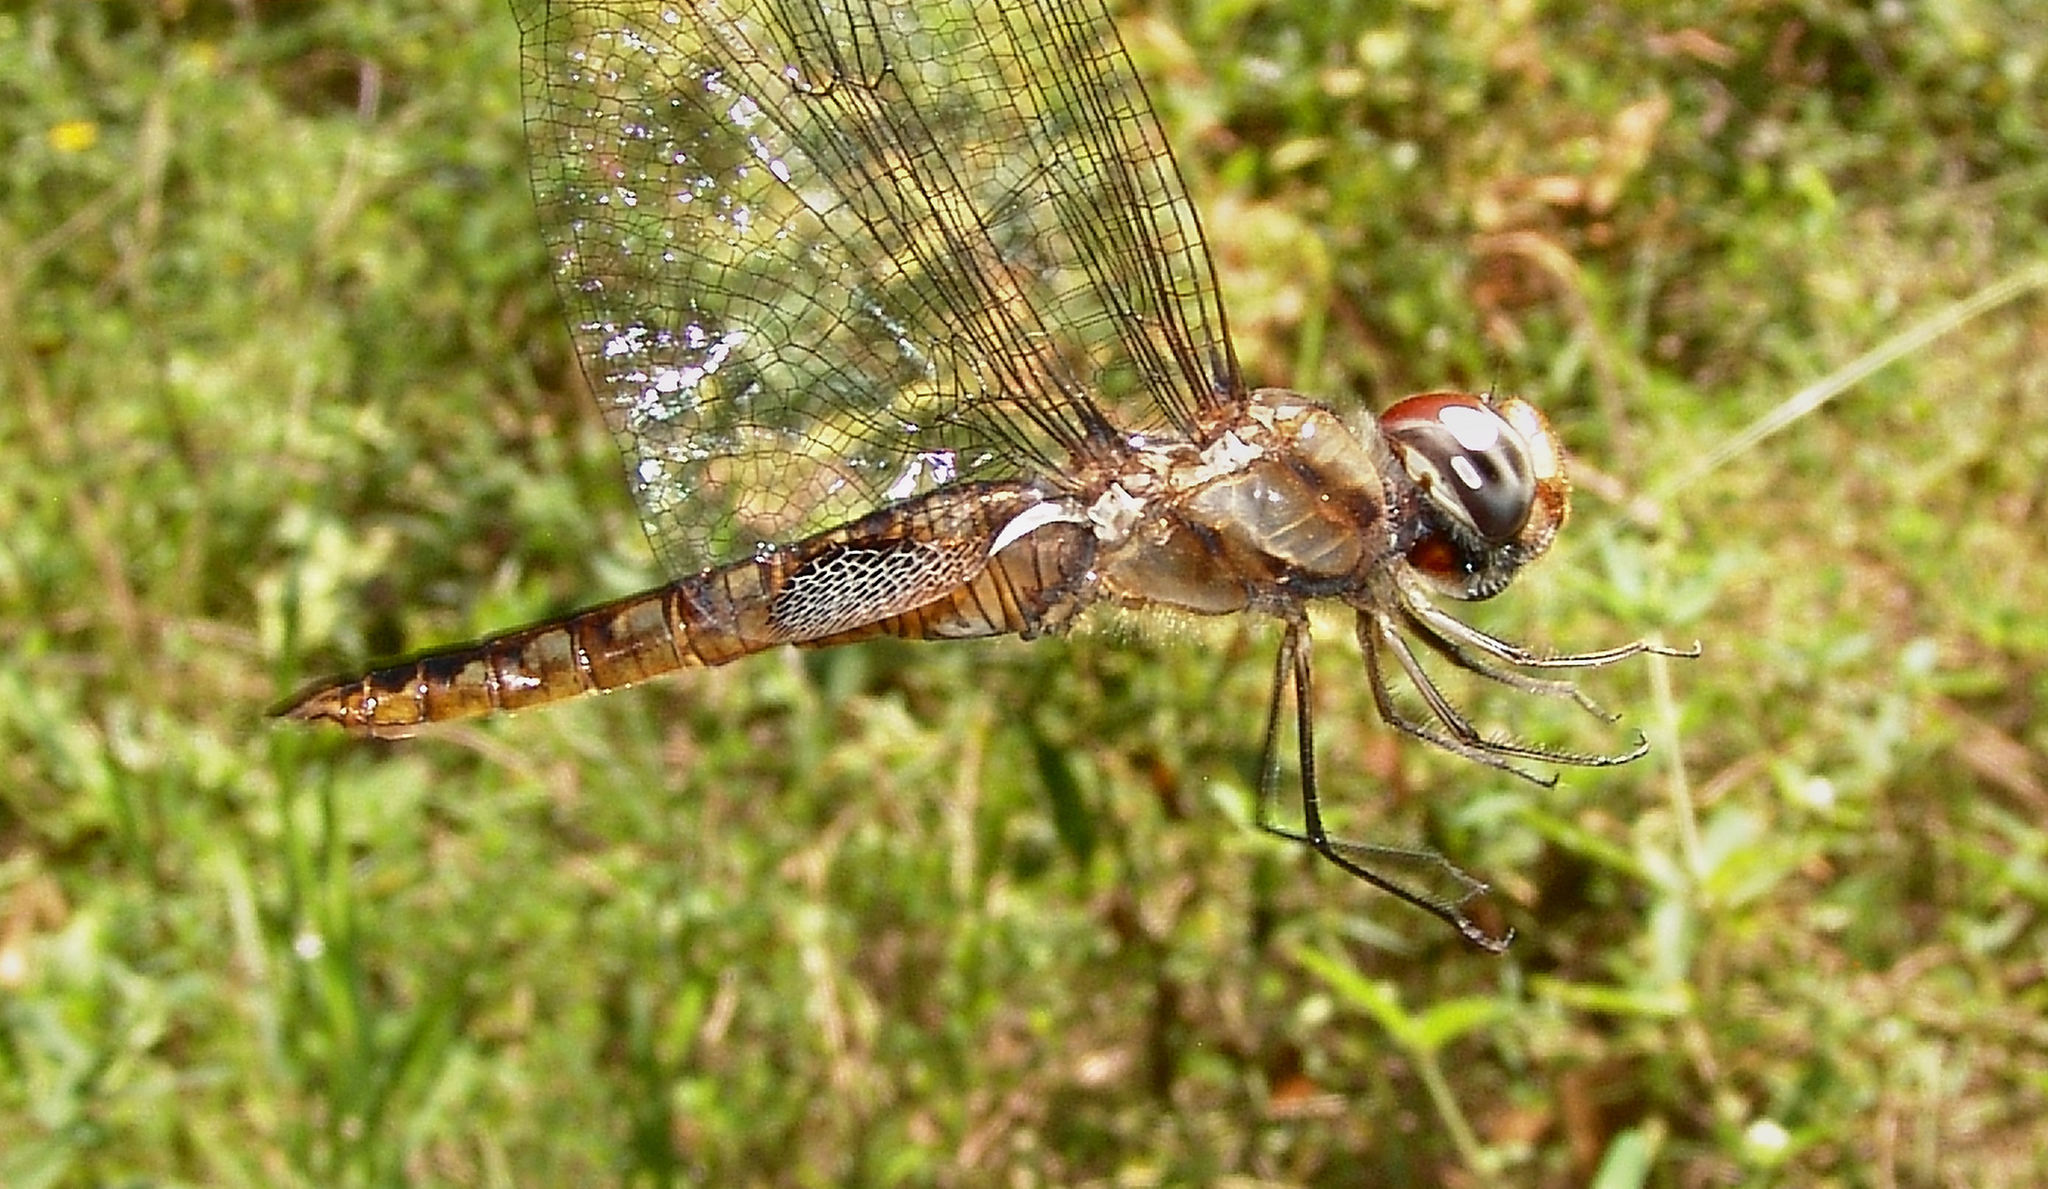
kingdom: Animalia
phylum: Arthropoda
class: Insecta
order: Odonata
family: Libellulidae
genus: Pantala
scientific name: Pantala hymenaea
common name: Spot-winged glider
